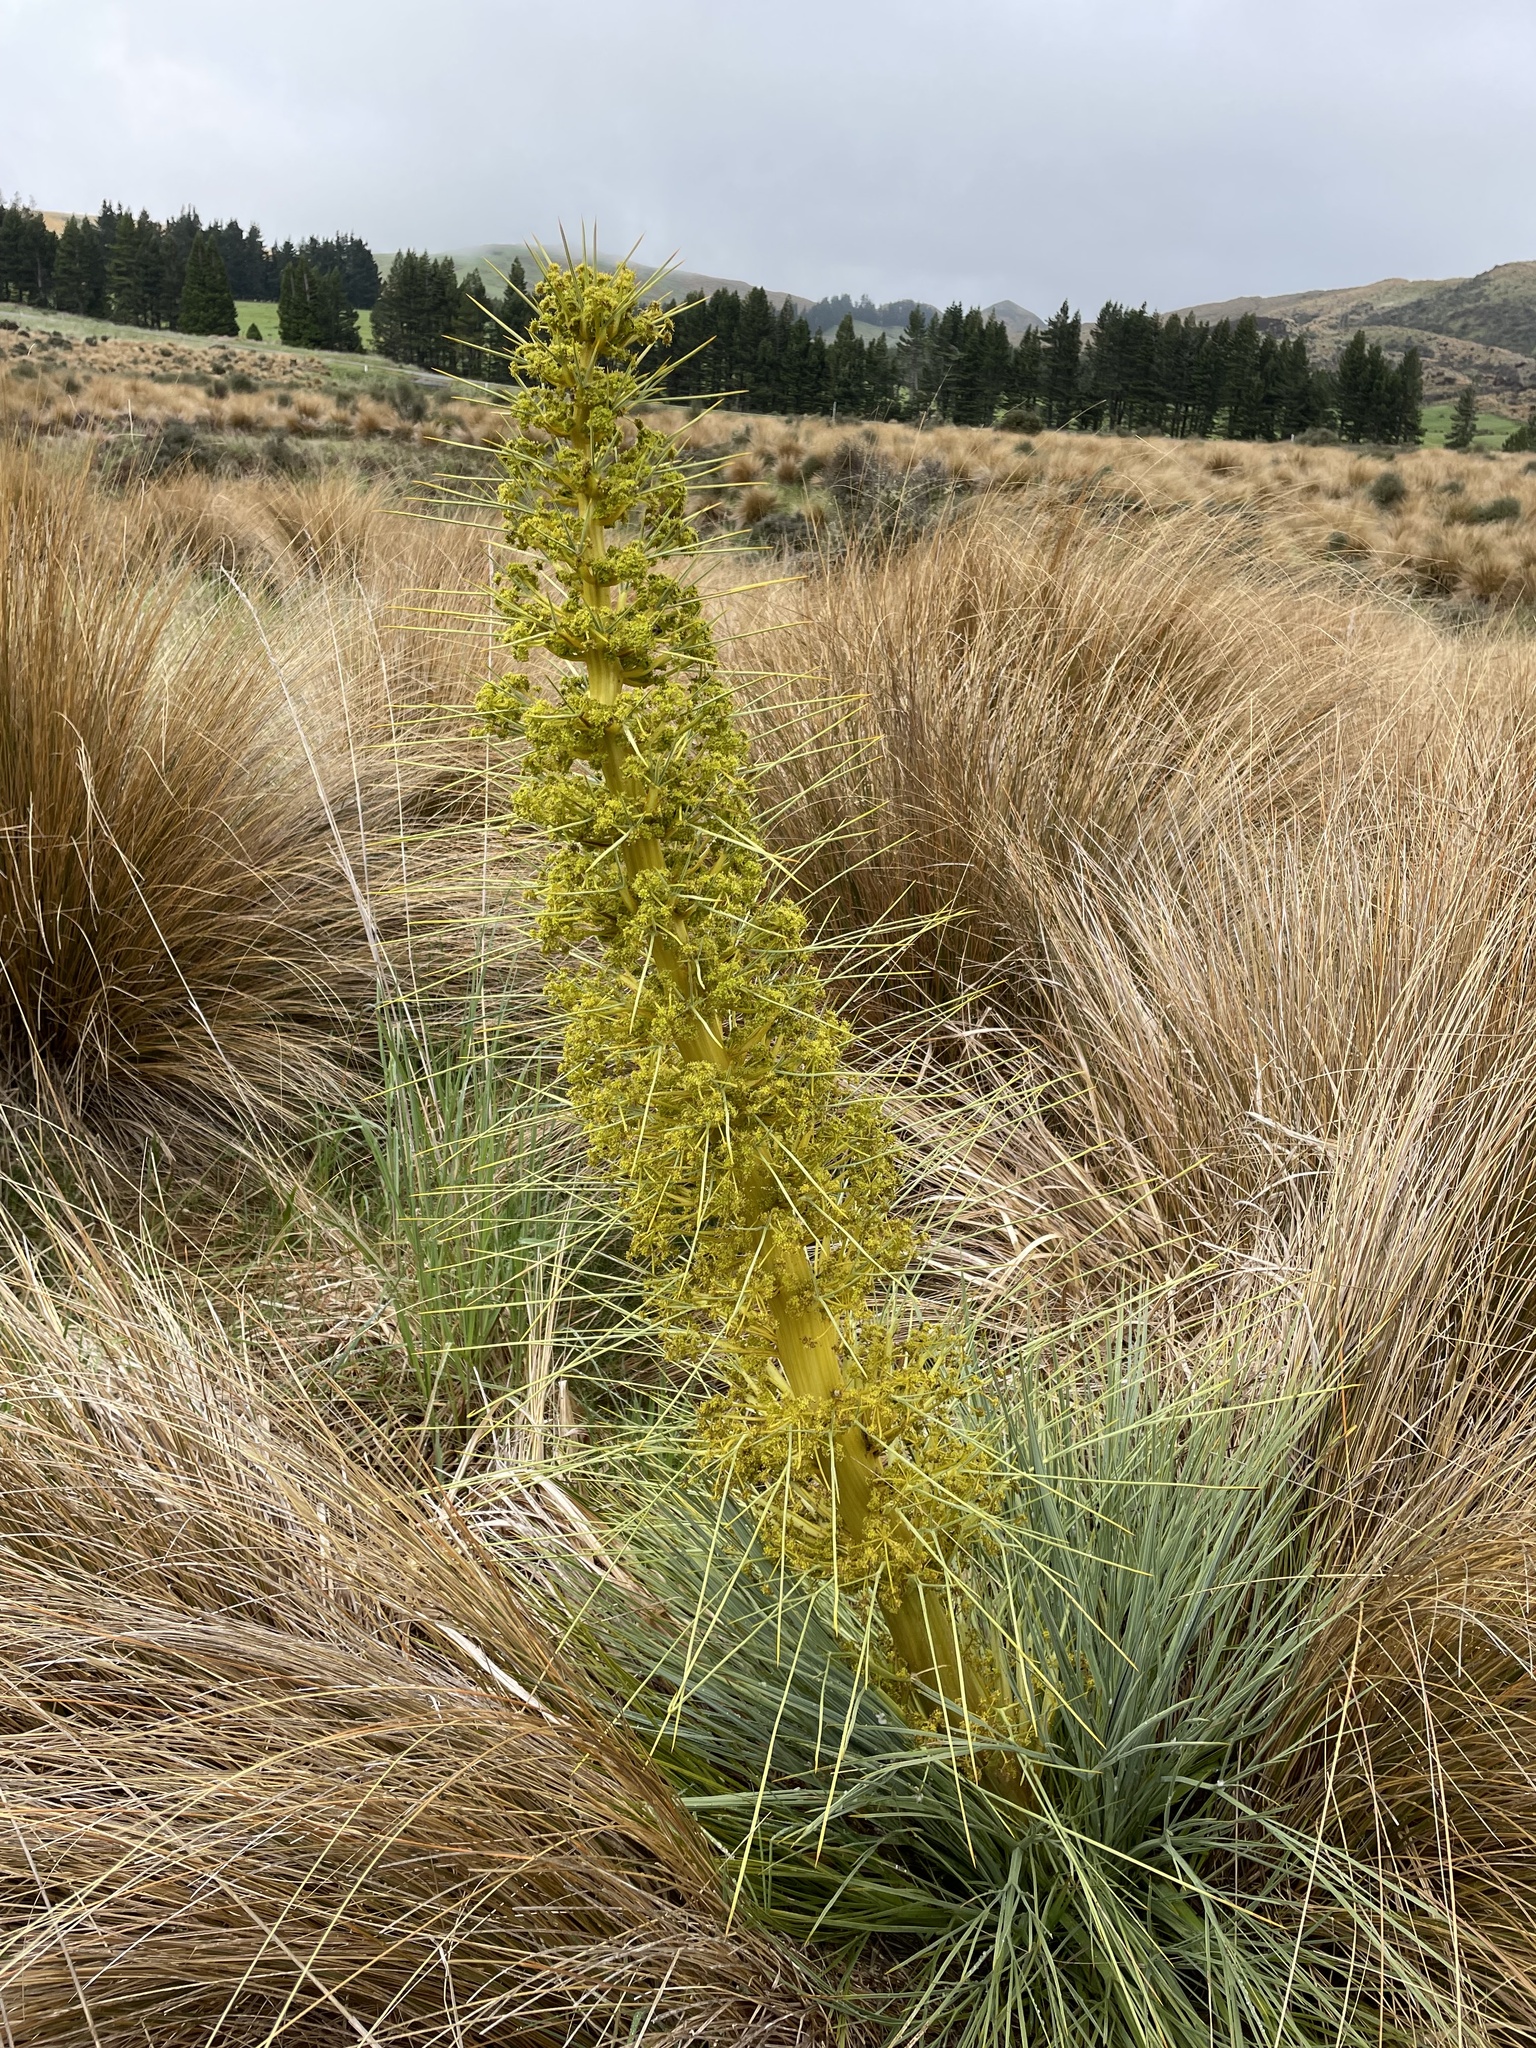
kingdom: Plantae
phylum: Tracheophyta
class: Magnoliopsida
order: Apiales
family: Apiaceae
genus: Aciphylla
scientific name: Aciphylla glaucescens
